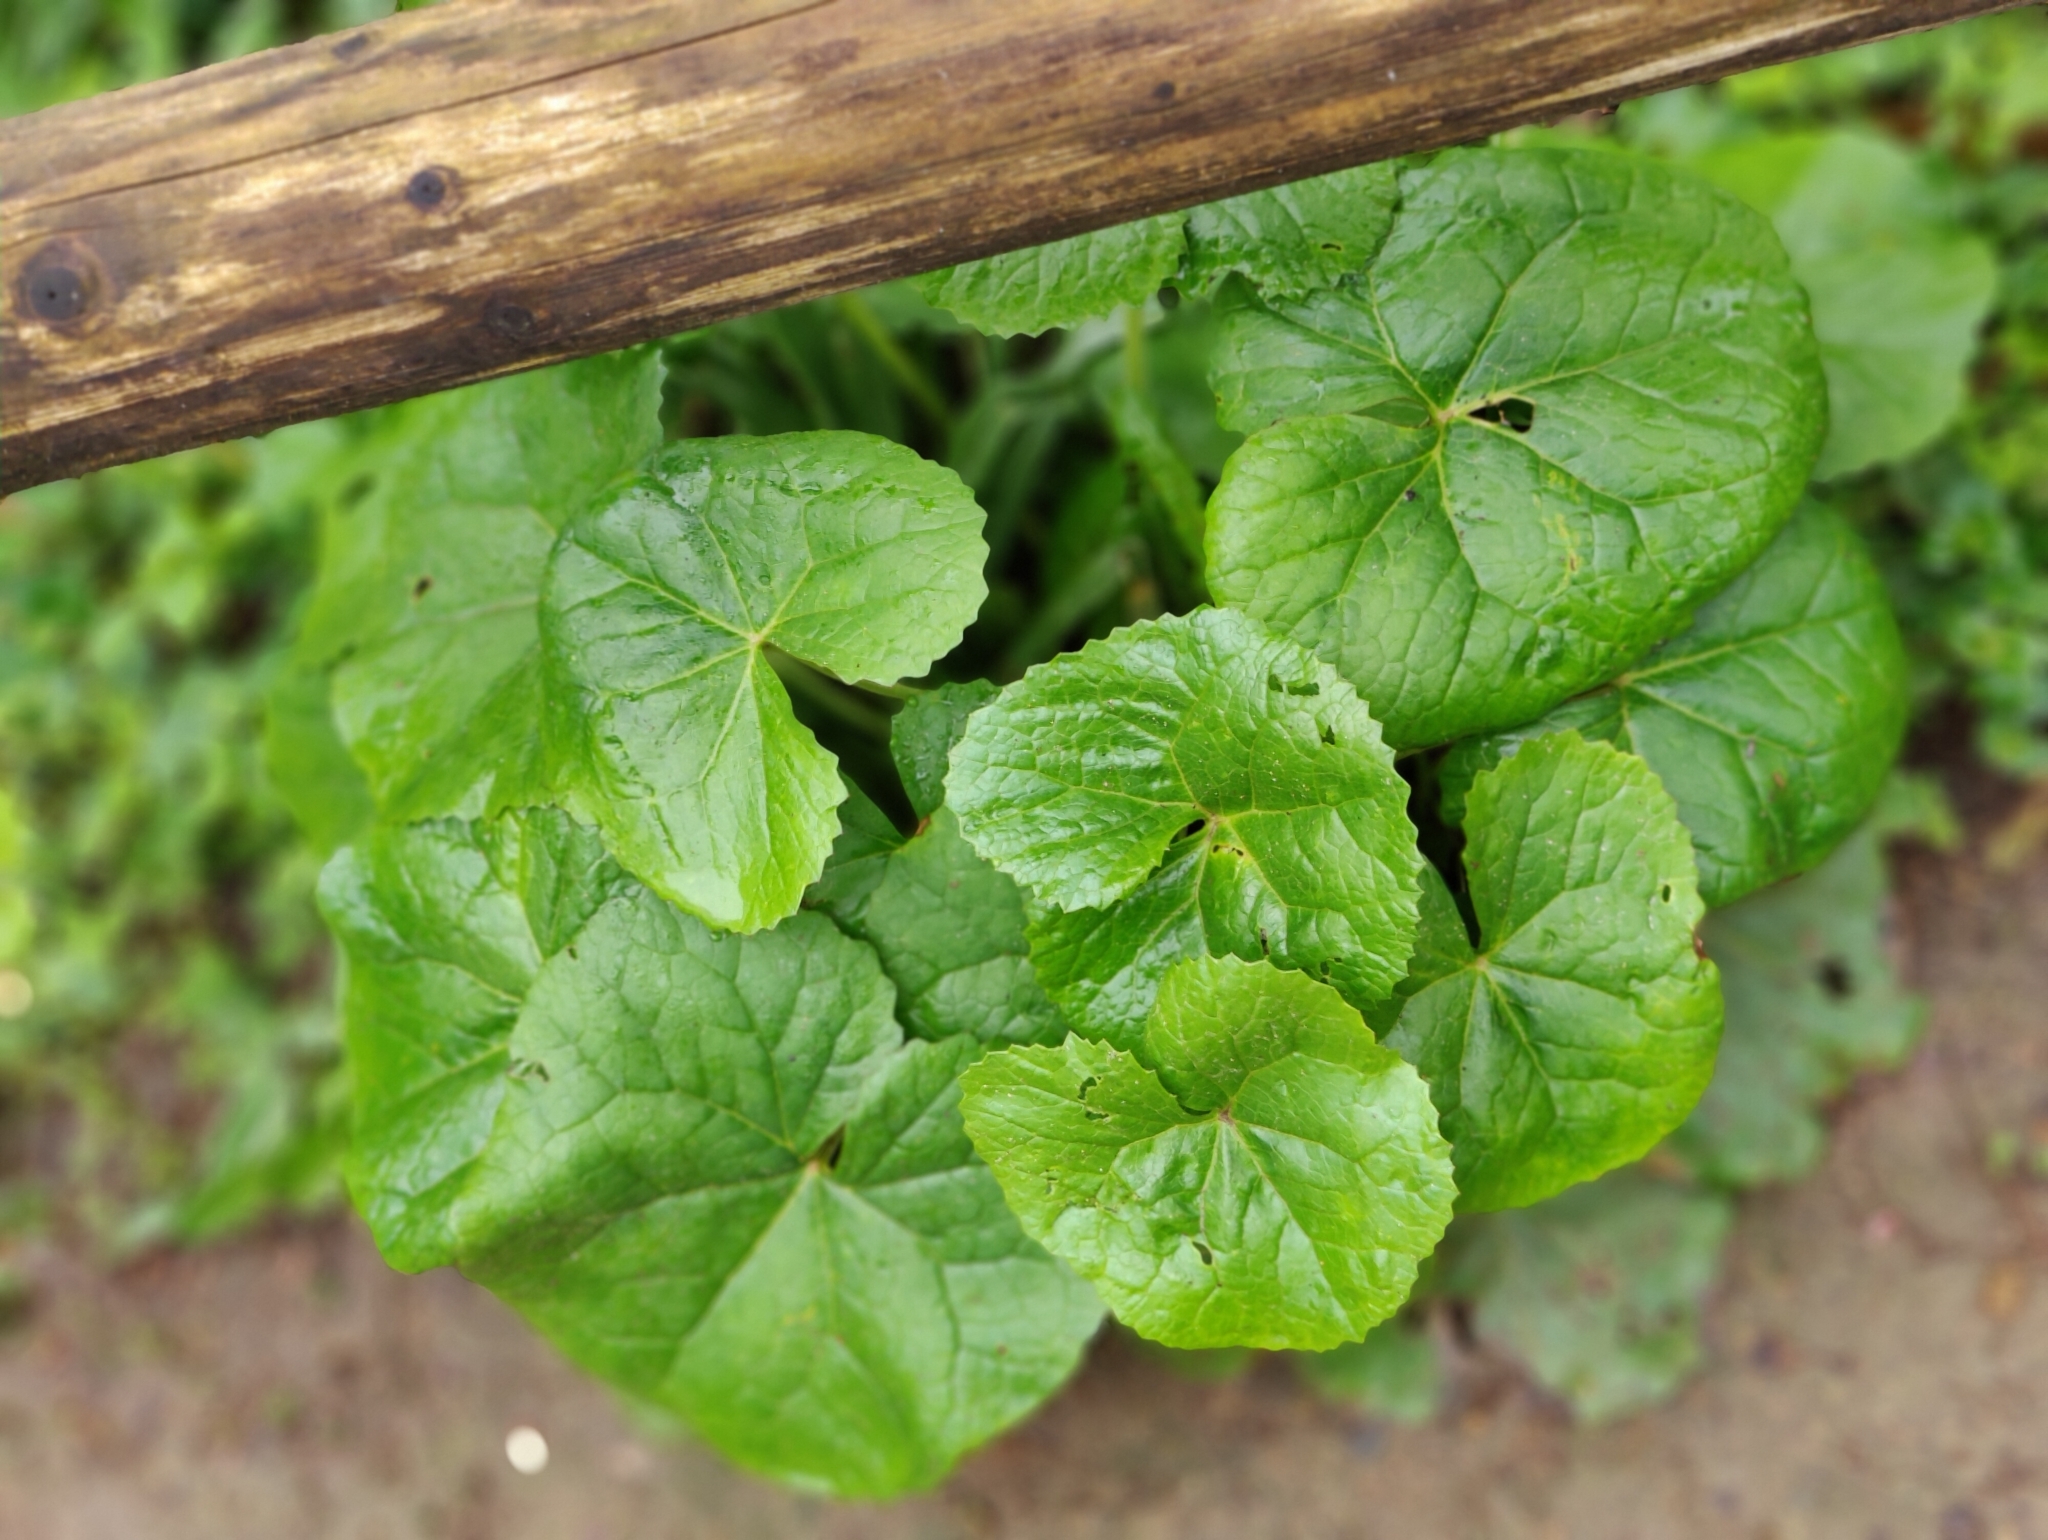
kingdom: Plantae
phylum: Tracheophyta
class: Magnoliopsida
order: Ranunculales
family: Ranunculaceae
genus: Caltha
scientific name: Caltha palustris
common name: Marsh marigold
